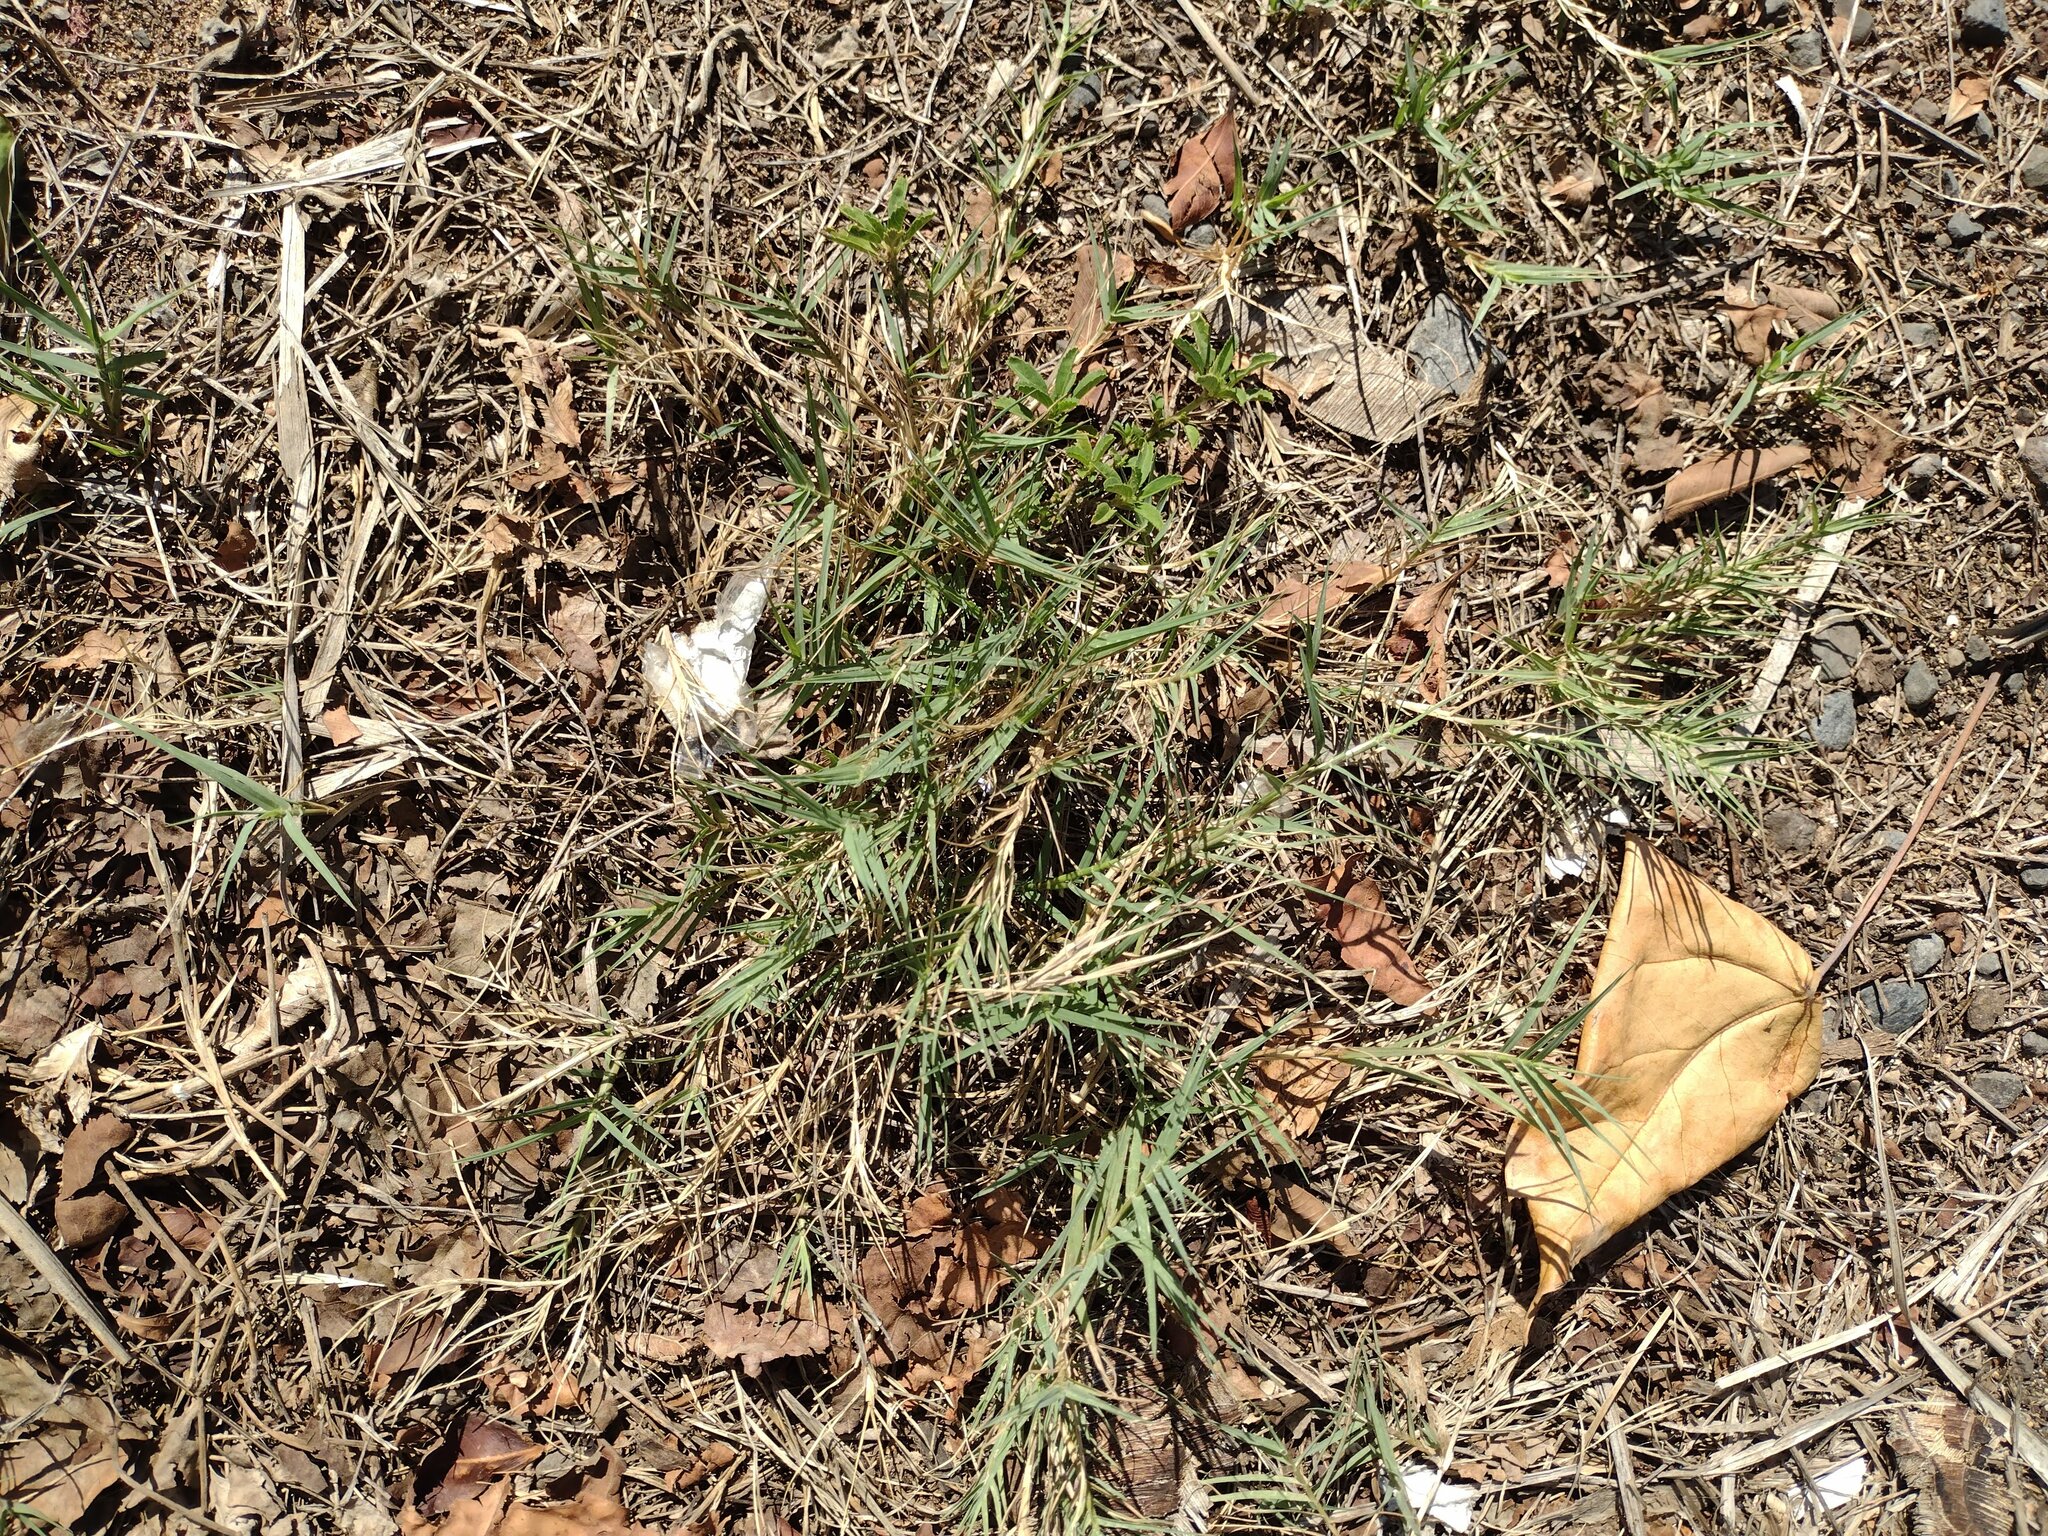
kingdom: Plantae
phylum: Tracheophyta
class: Liliopsida
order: Poales
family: Poaceae
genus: Cynodon
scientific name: Cynodon dactylon
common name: Bermuda grass
